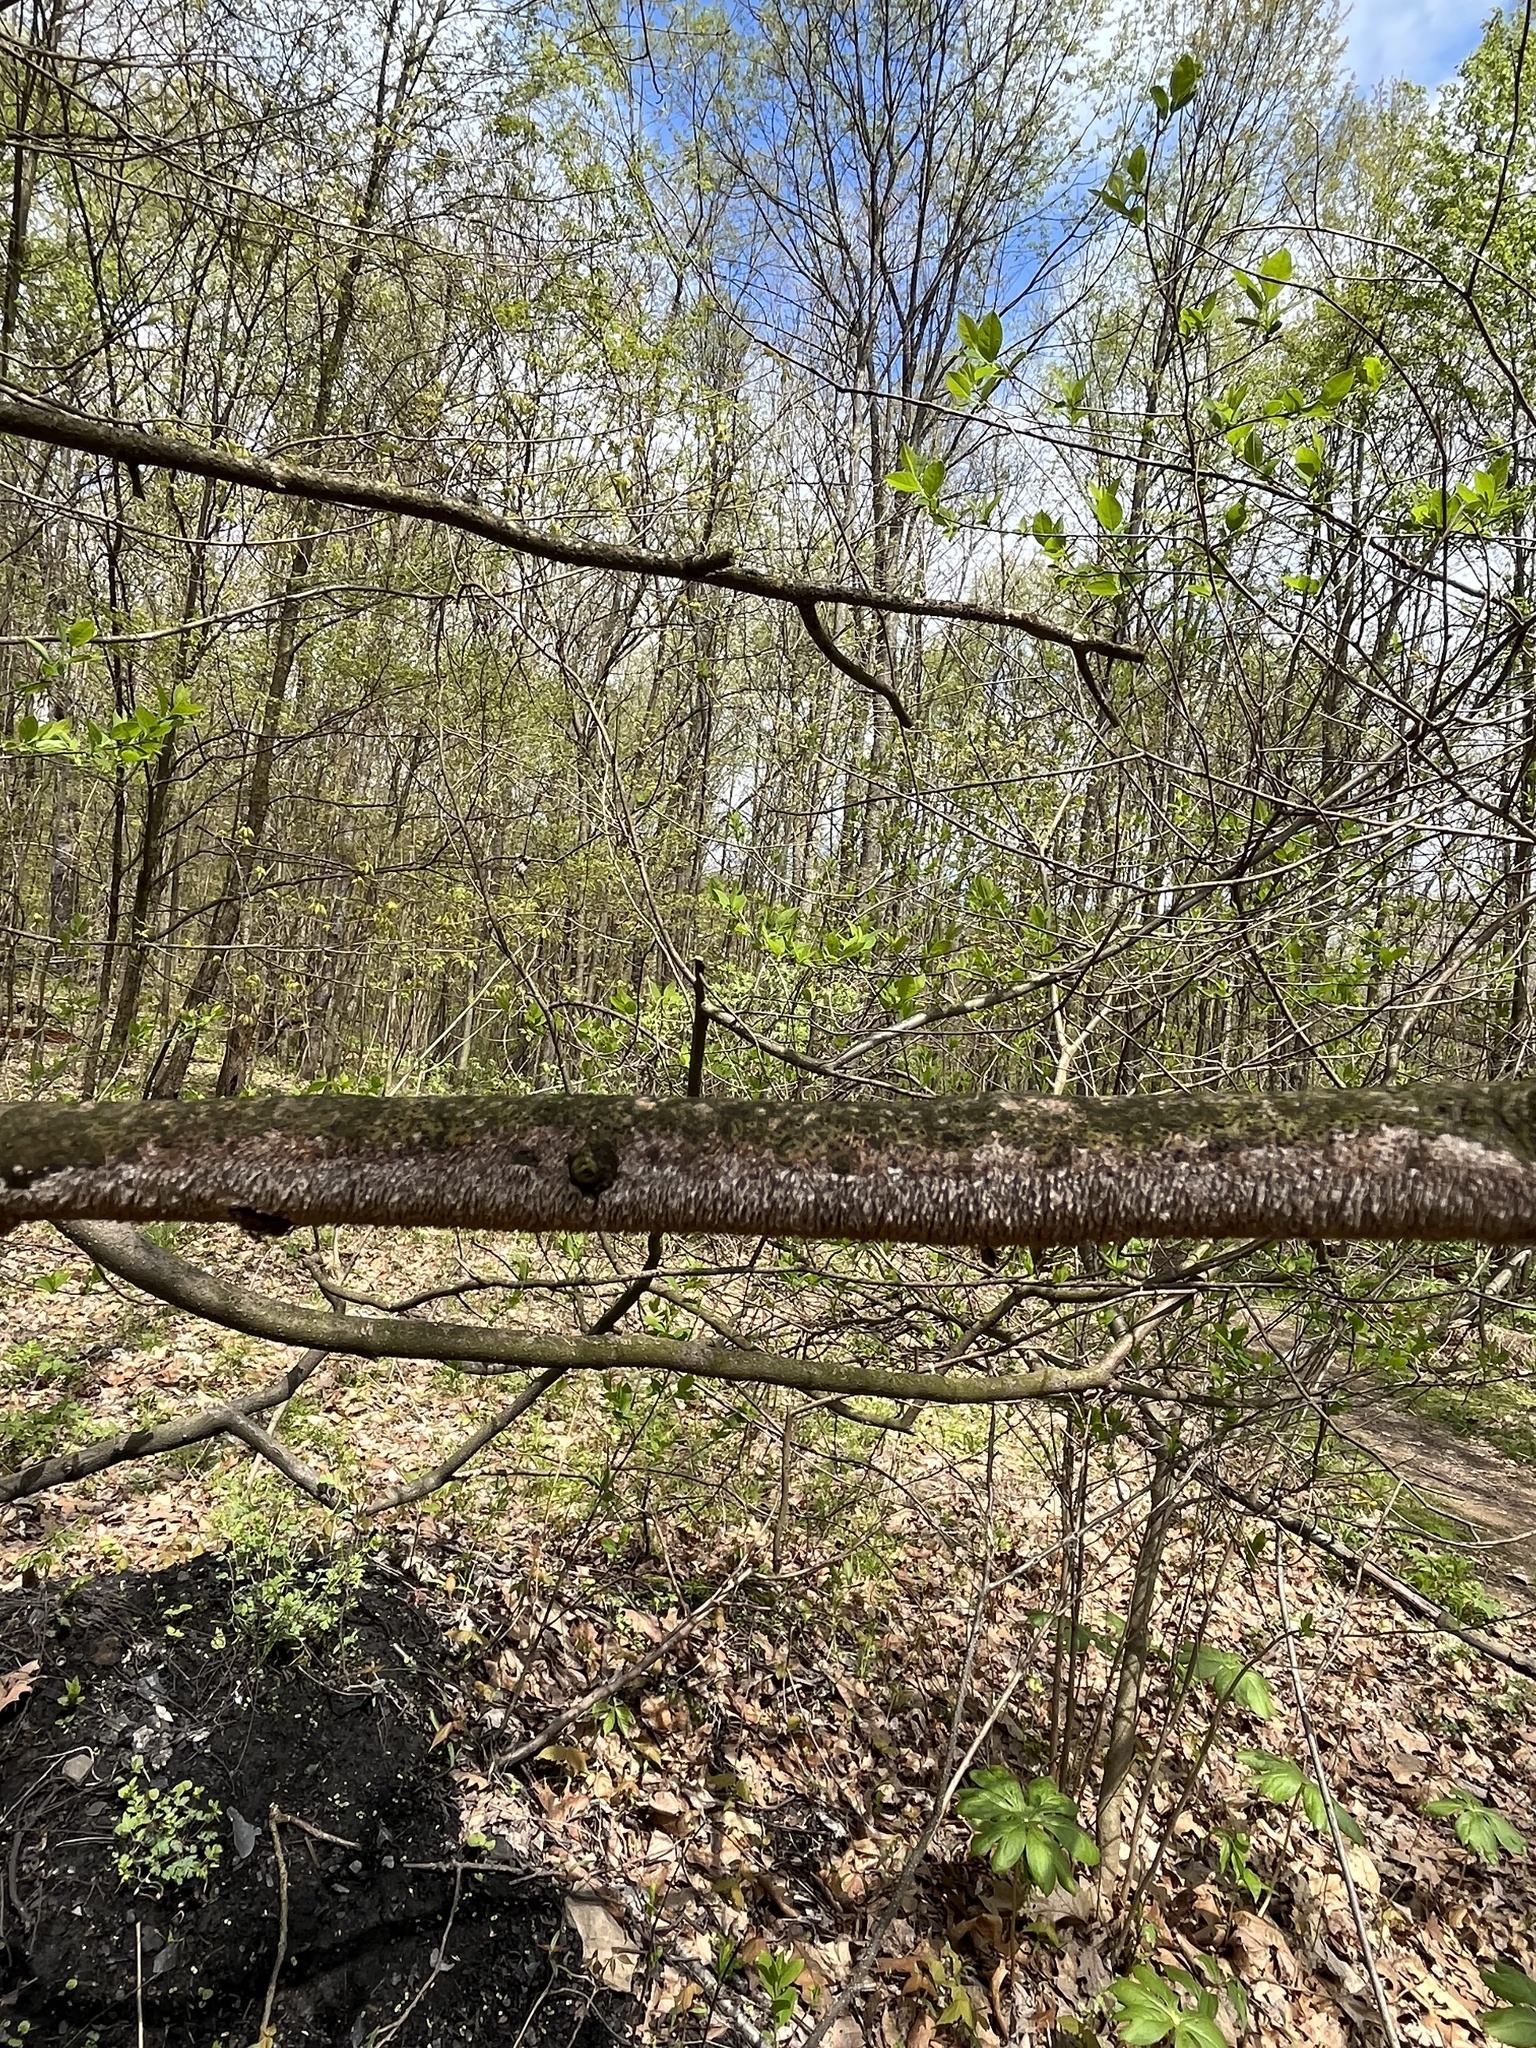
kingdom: Fungi
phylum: Basidiomycota
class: Agaricomycetes
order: Hymenochaetales
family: Hymenochaetaceae
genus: Hydnoporia
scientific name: Hydnoporia olivacea
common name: Brown-toothed crust fungus
